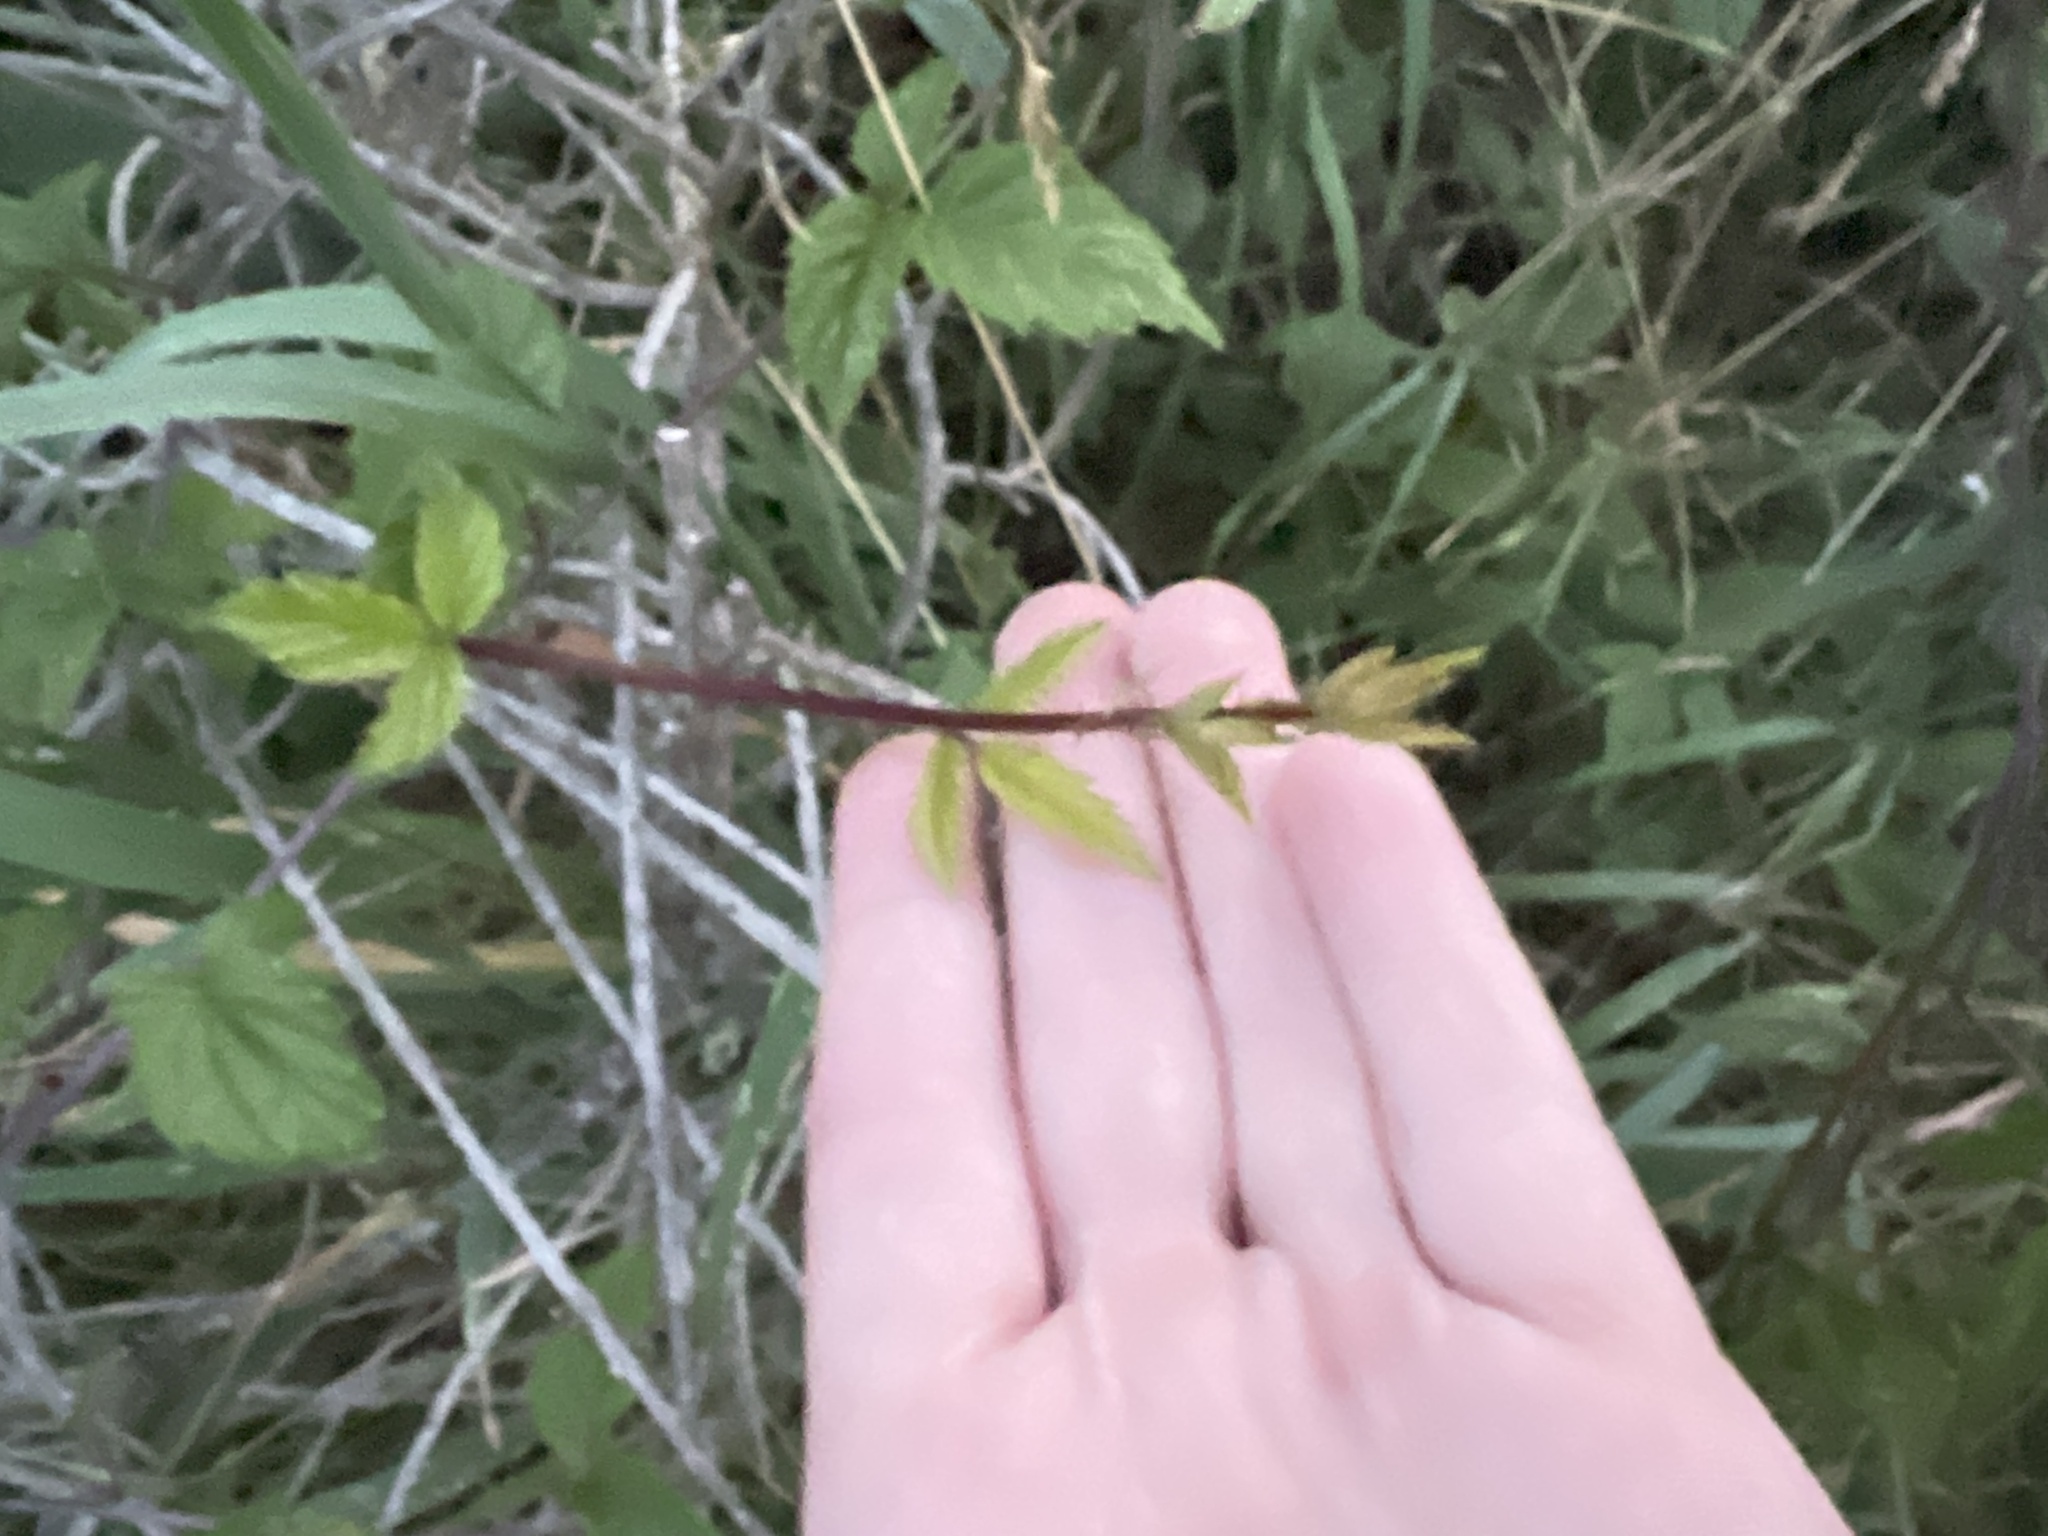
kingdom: Plantae
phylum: Tracheophyta
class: Magnoliopsida
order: Rosales
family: Rosaceae
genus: Rubus
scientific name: Rubus ursinus
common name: Pacific blackberry
